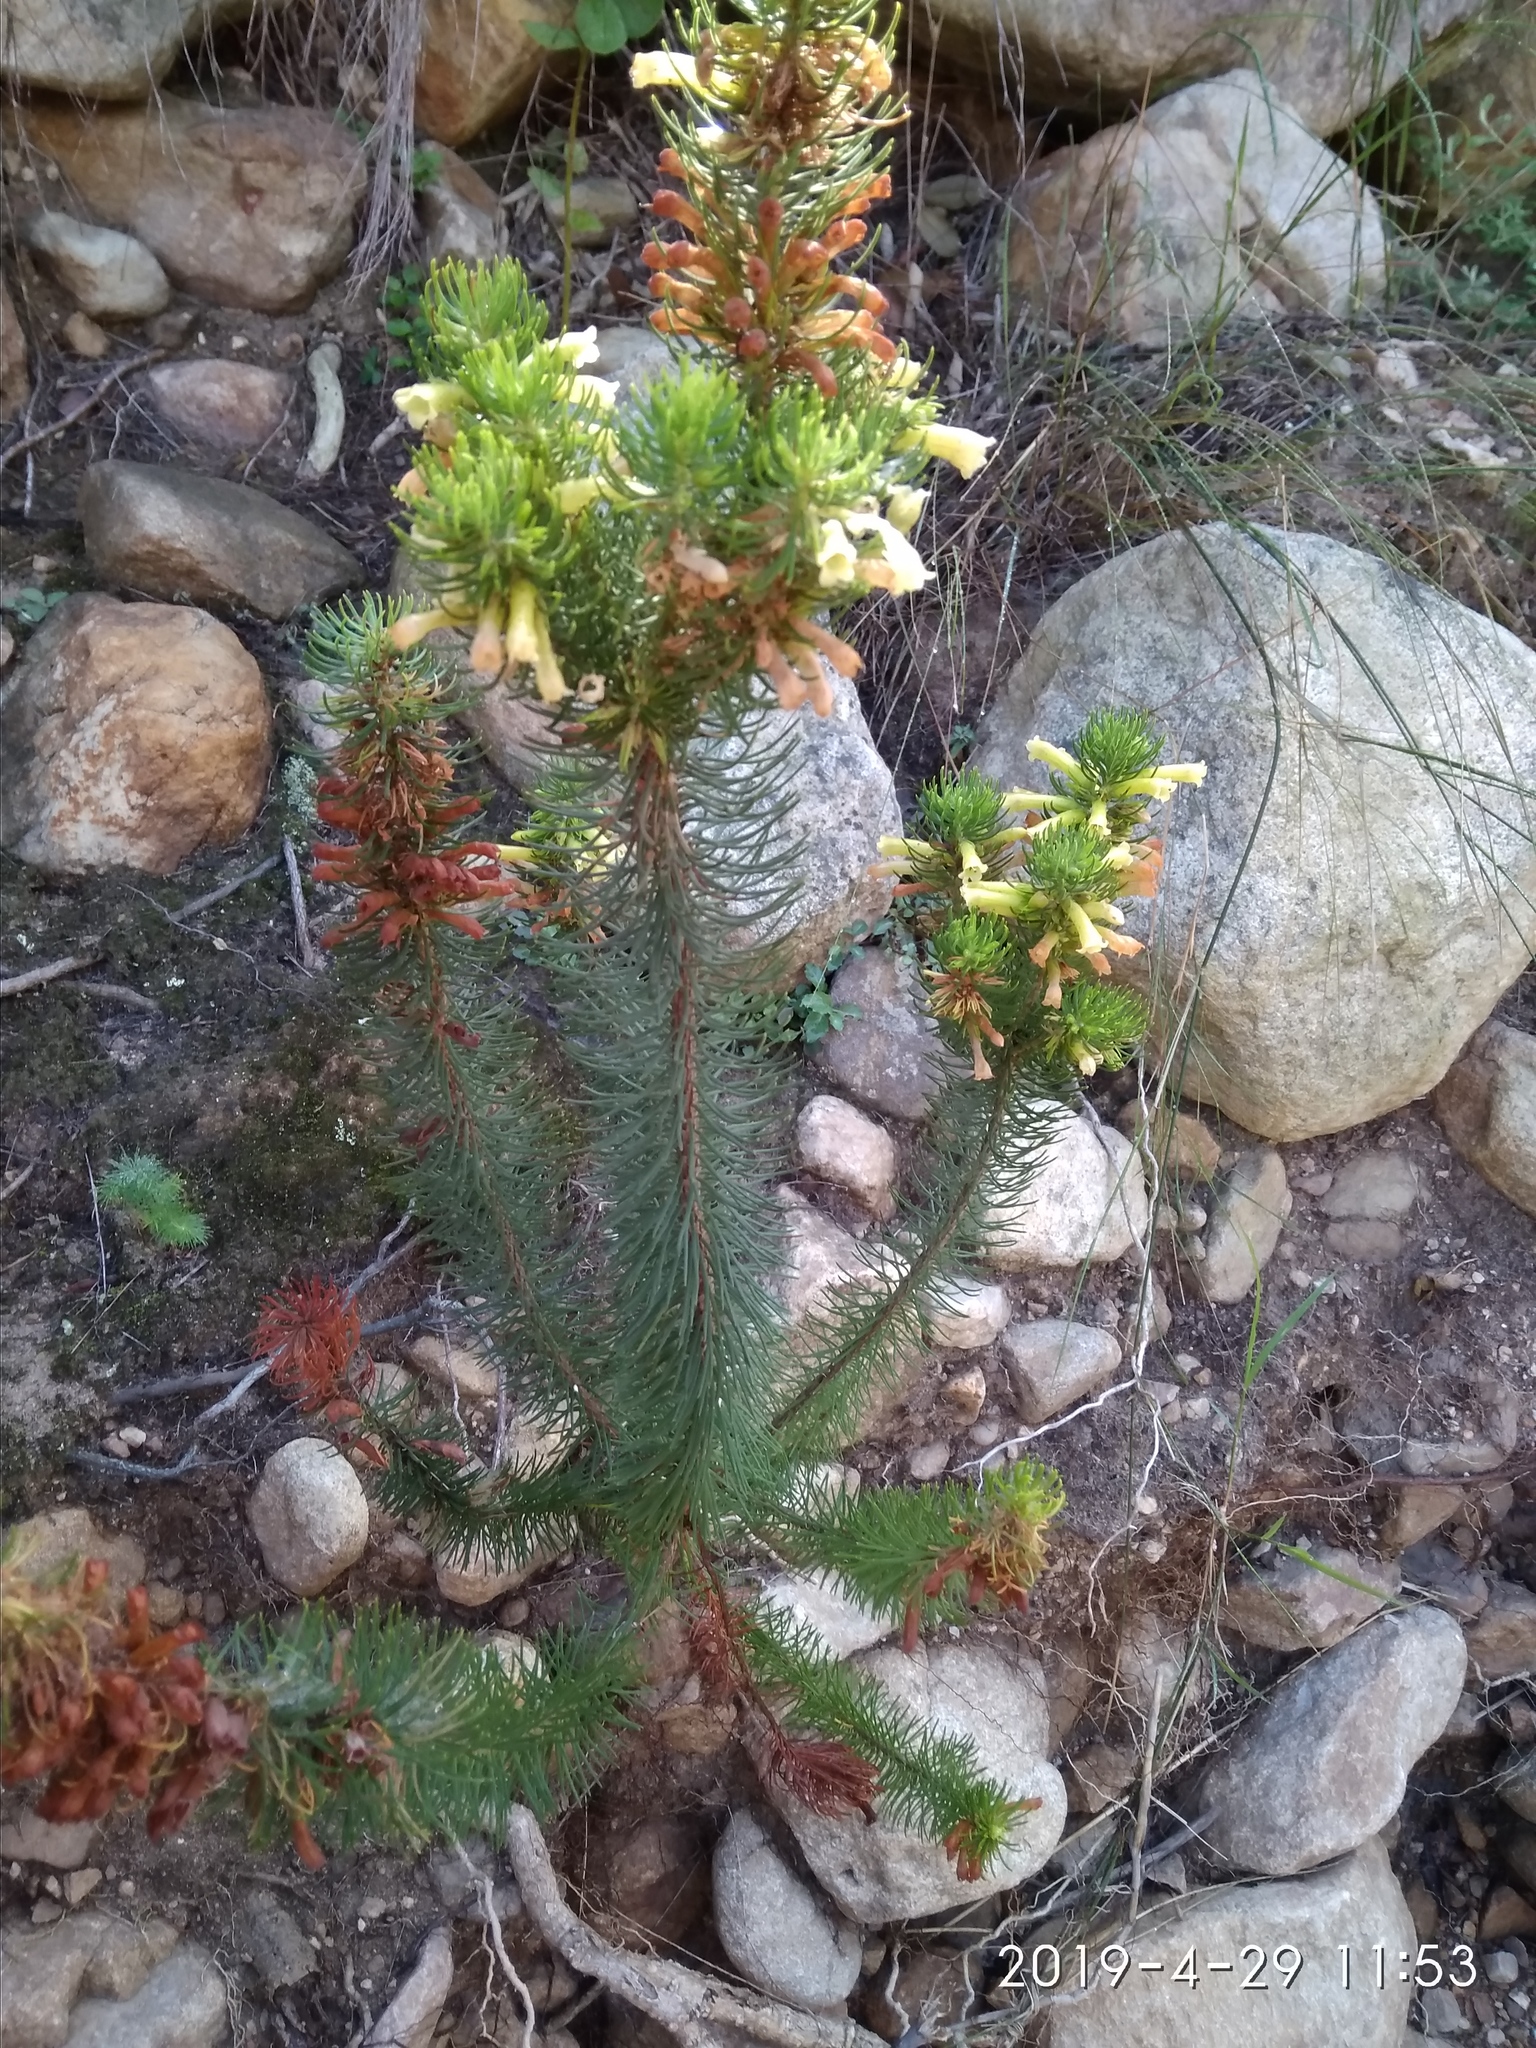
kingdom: Plantae
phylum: Tracheophyta
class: Magnoliopsida
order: Ericales
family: Ericaceae
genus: Erica
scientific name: Erica viscaria
